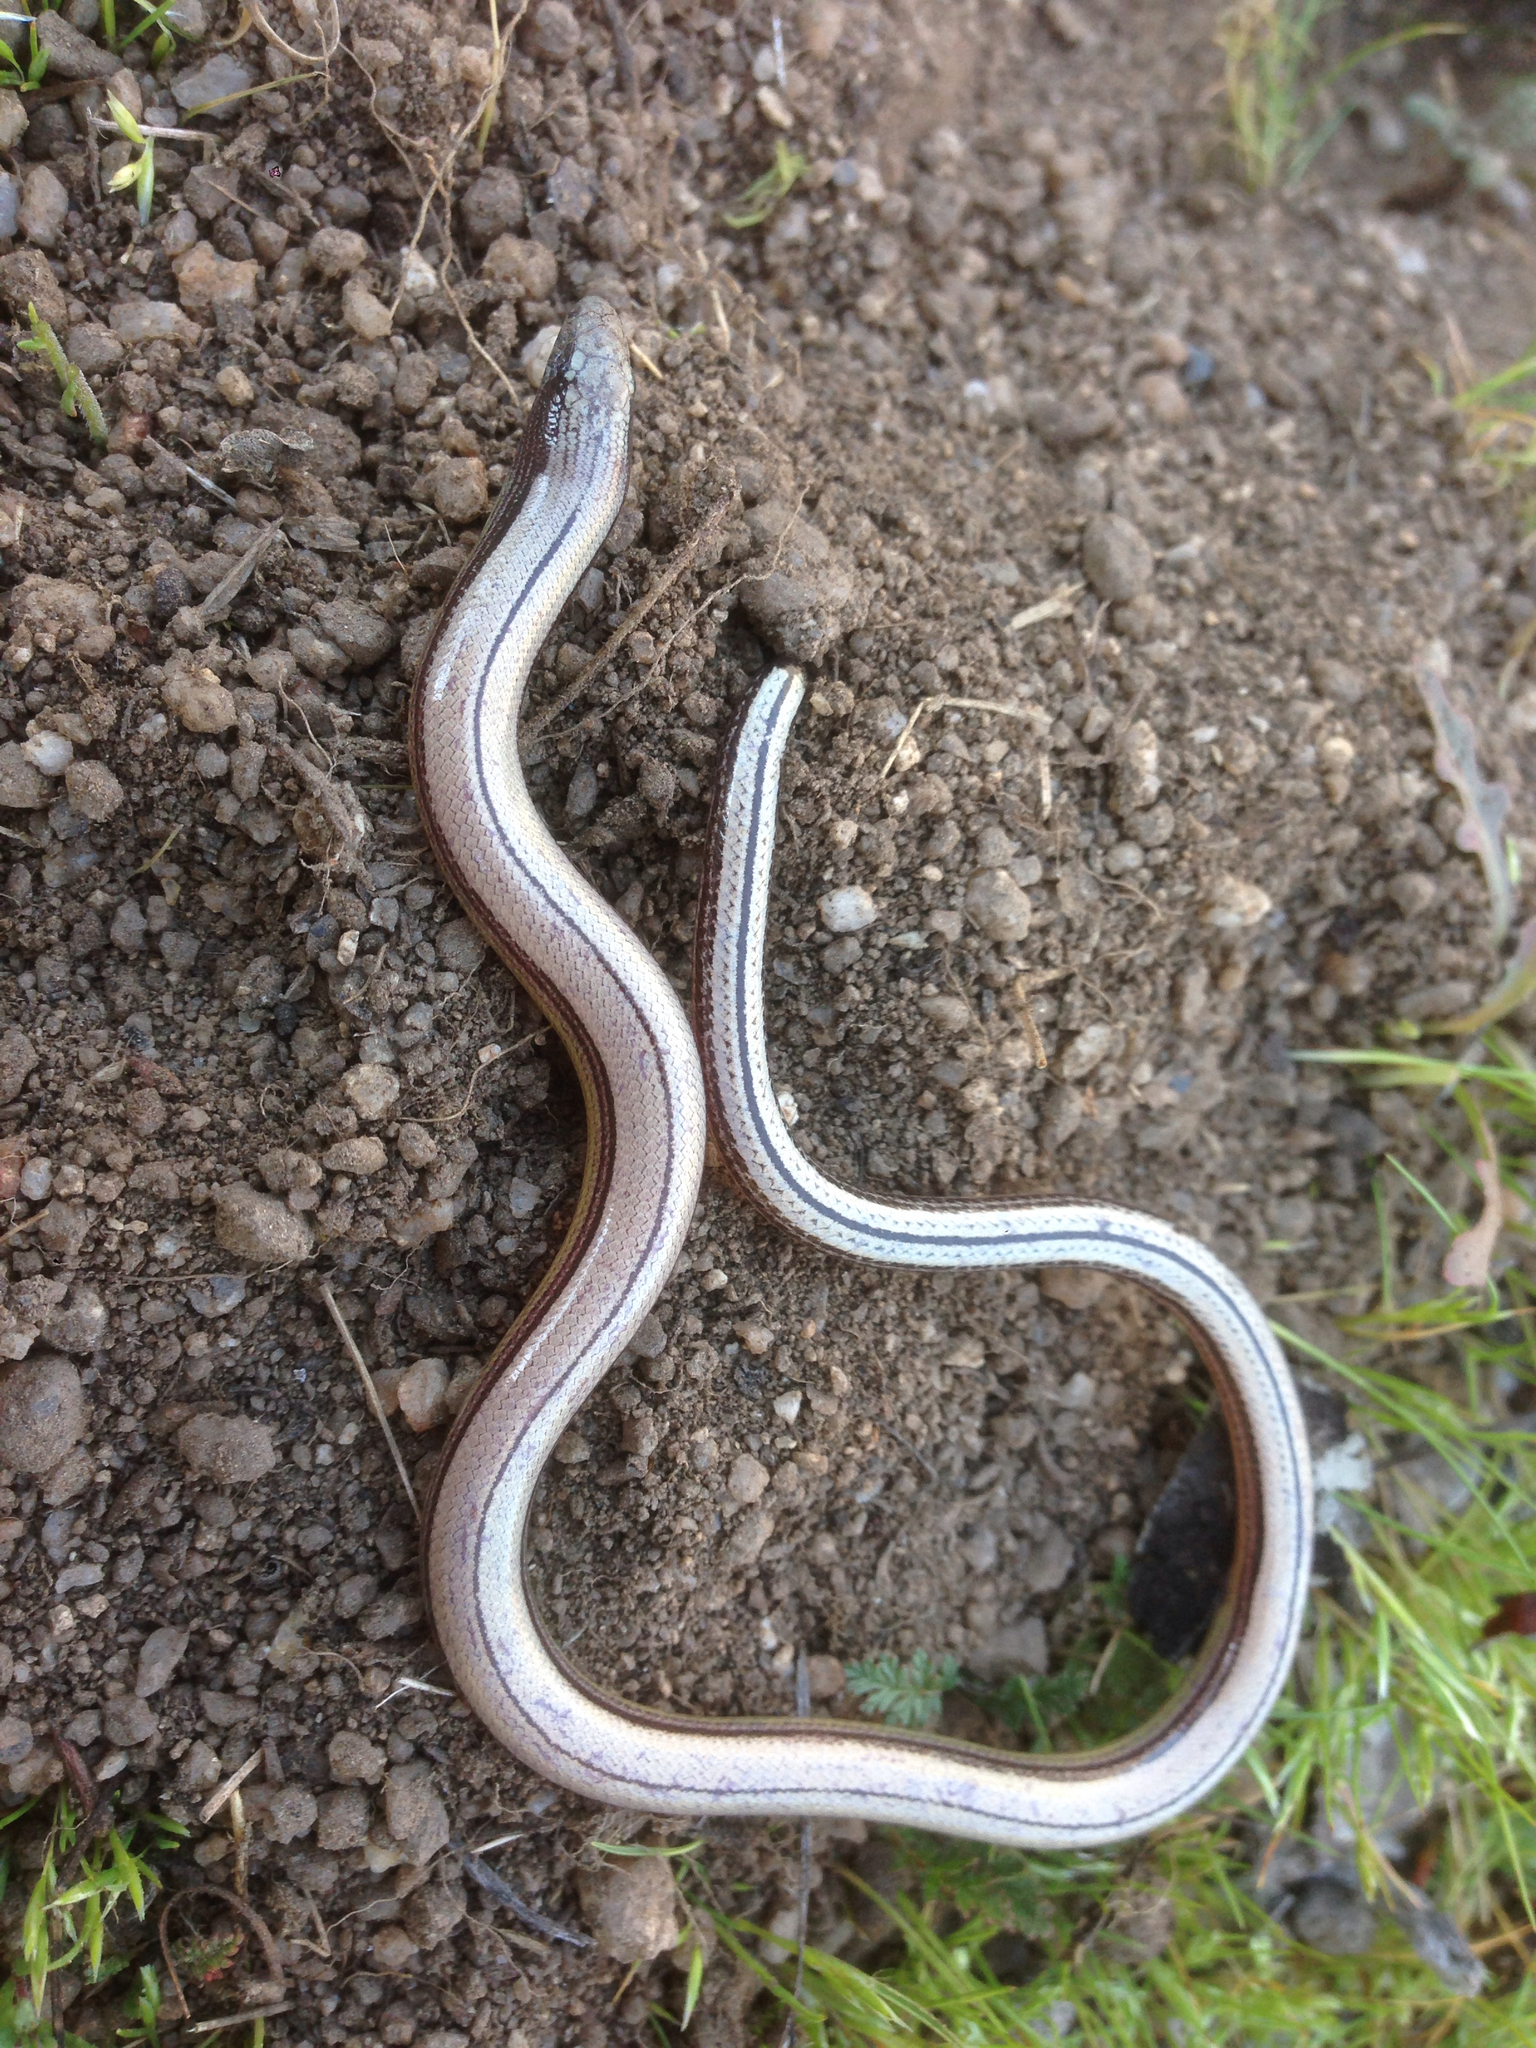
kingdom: Animalia
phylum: Chordata
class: Squamata
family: Anguidae
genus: Anniella
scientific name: Anniella stebbinsi
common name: Southern california legless lizard
